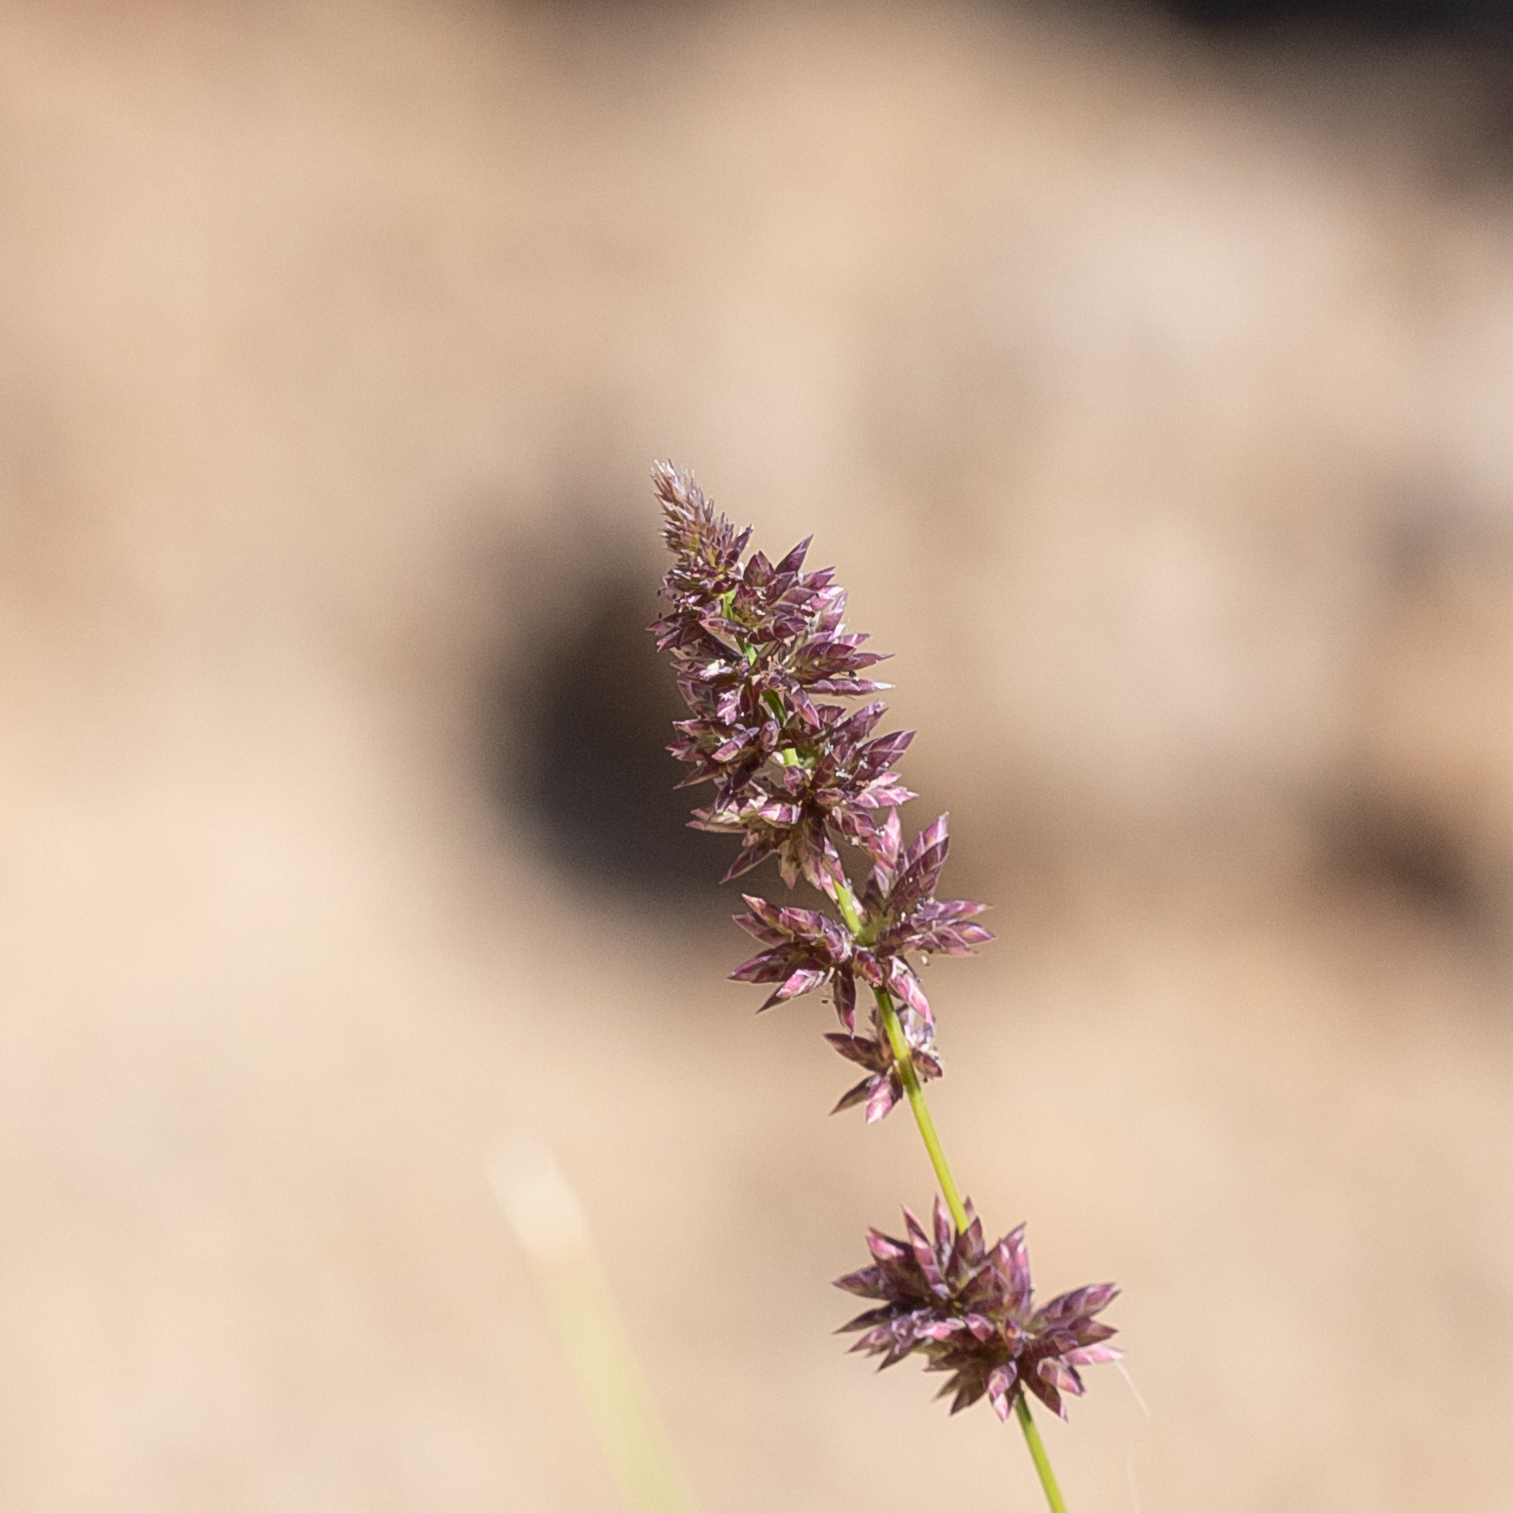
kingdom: Plantae
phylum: Tracheophyta
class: Liliopsida
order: Poales
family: Poaceae
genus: Eragrostis
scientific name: Eragrostis elongata
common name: Long lovegrass
